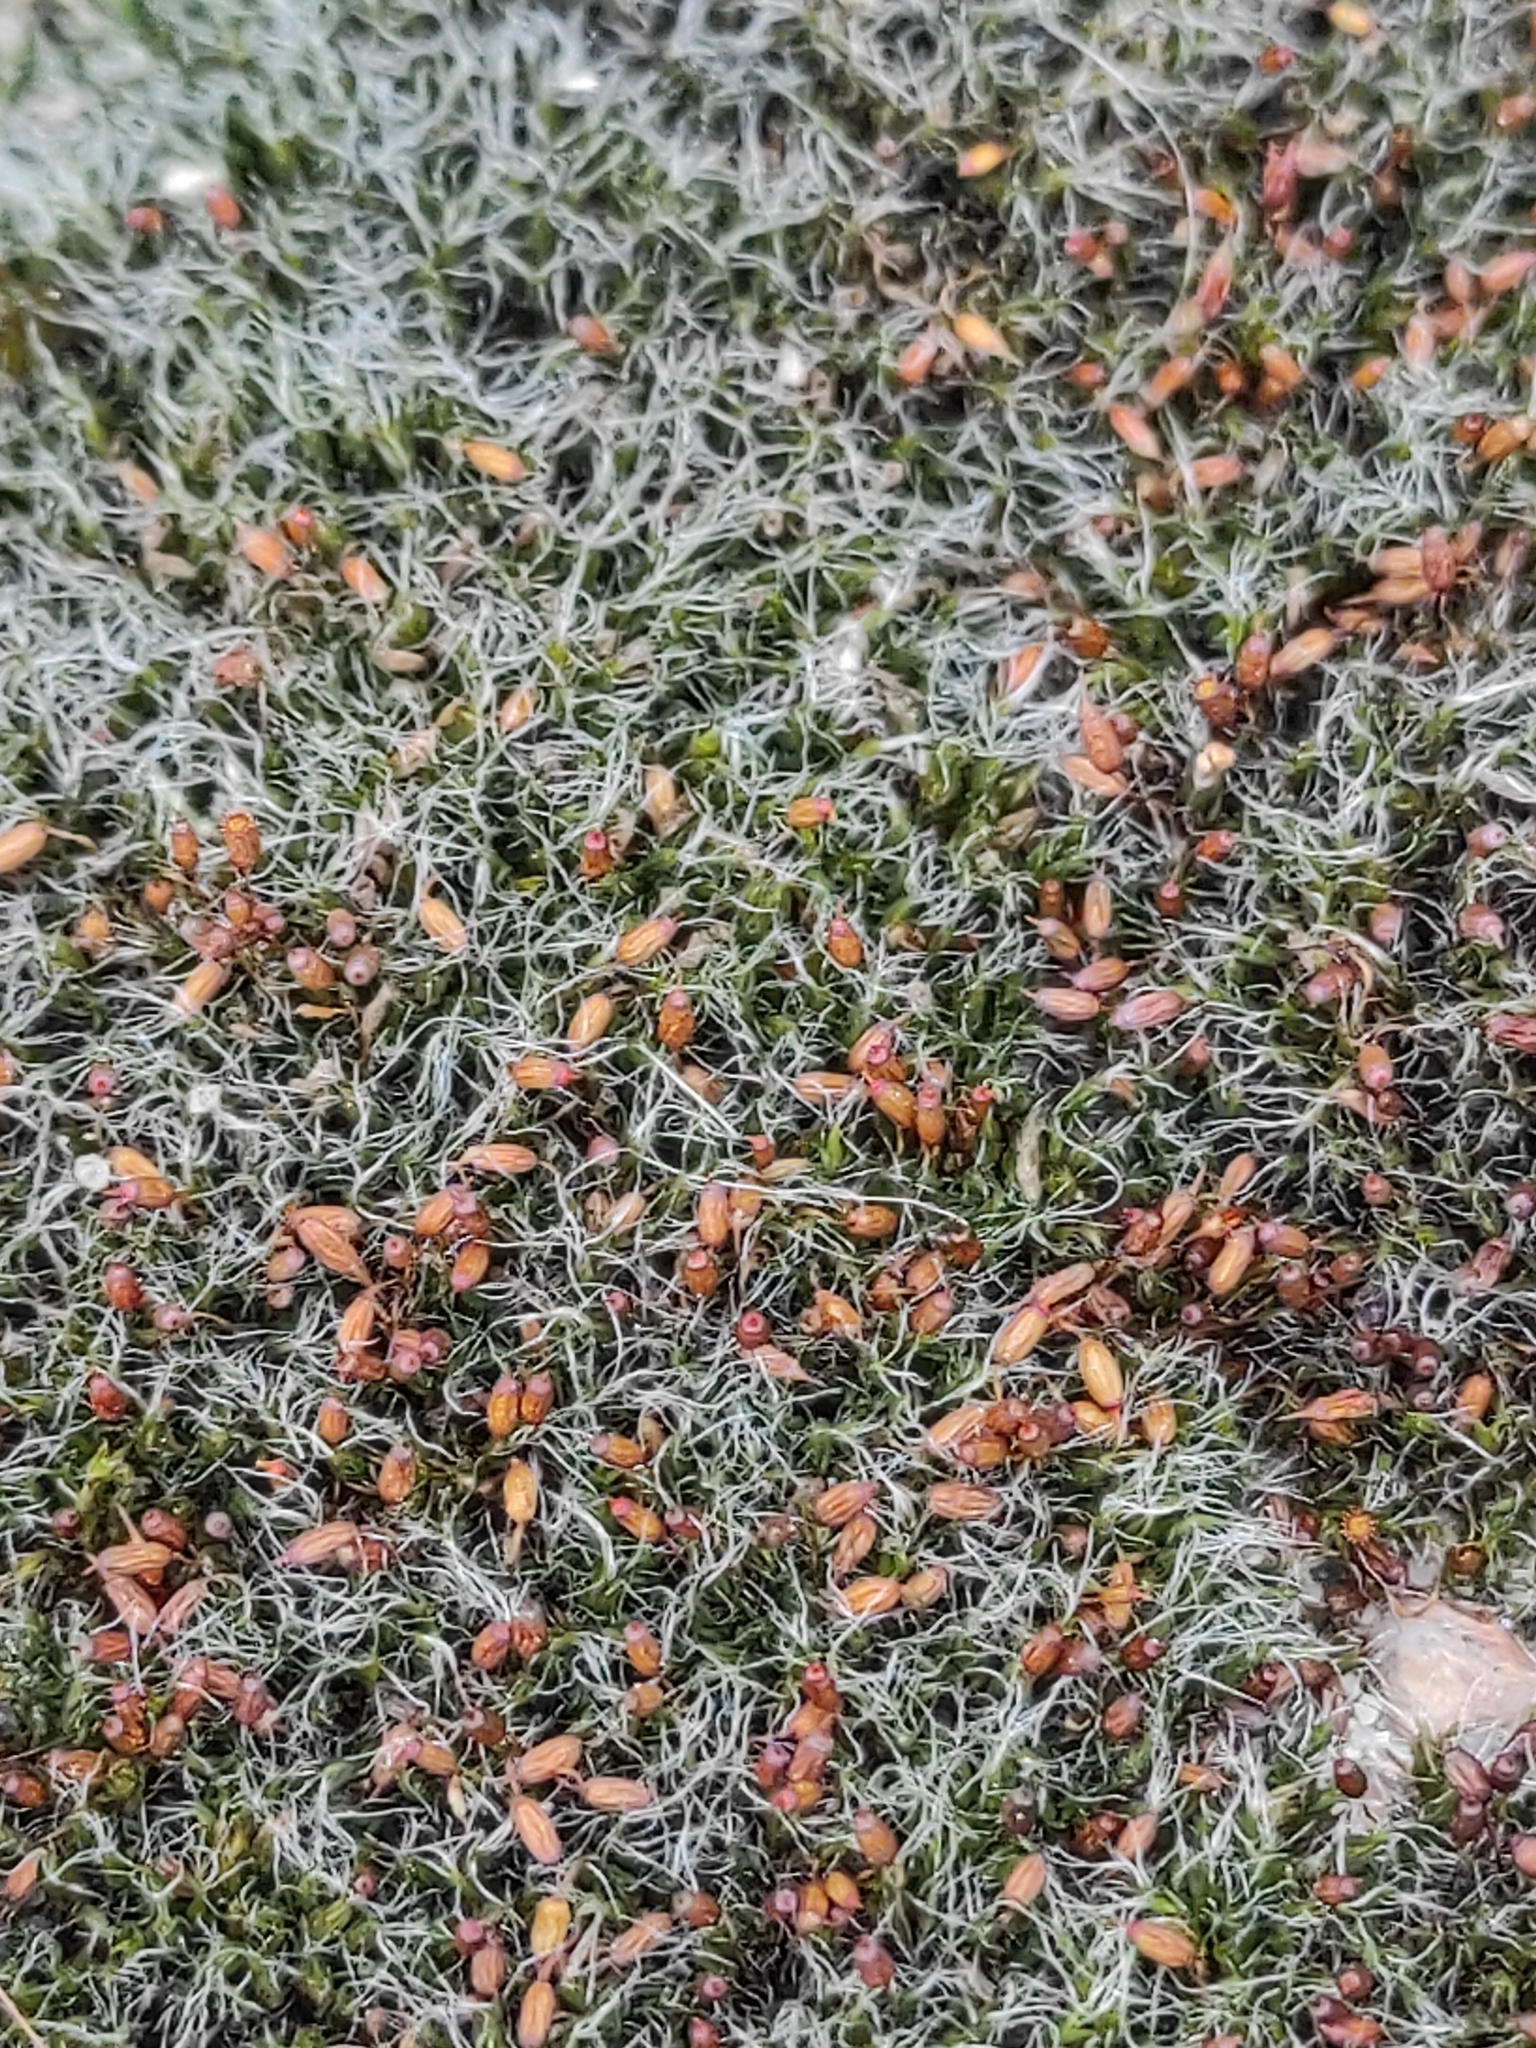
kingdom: Plantae
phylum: Bryophyta
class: Bryopsida
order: Grimmiales
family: Grimmiaceae
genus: Grimmia
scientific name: Grimmia pulvinata
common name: Grey-cushioned grimmia
